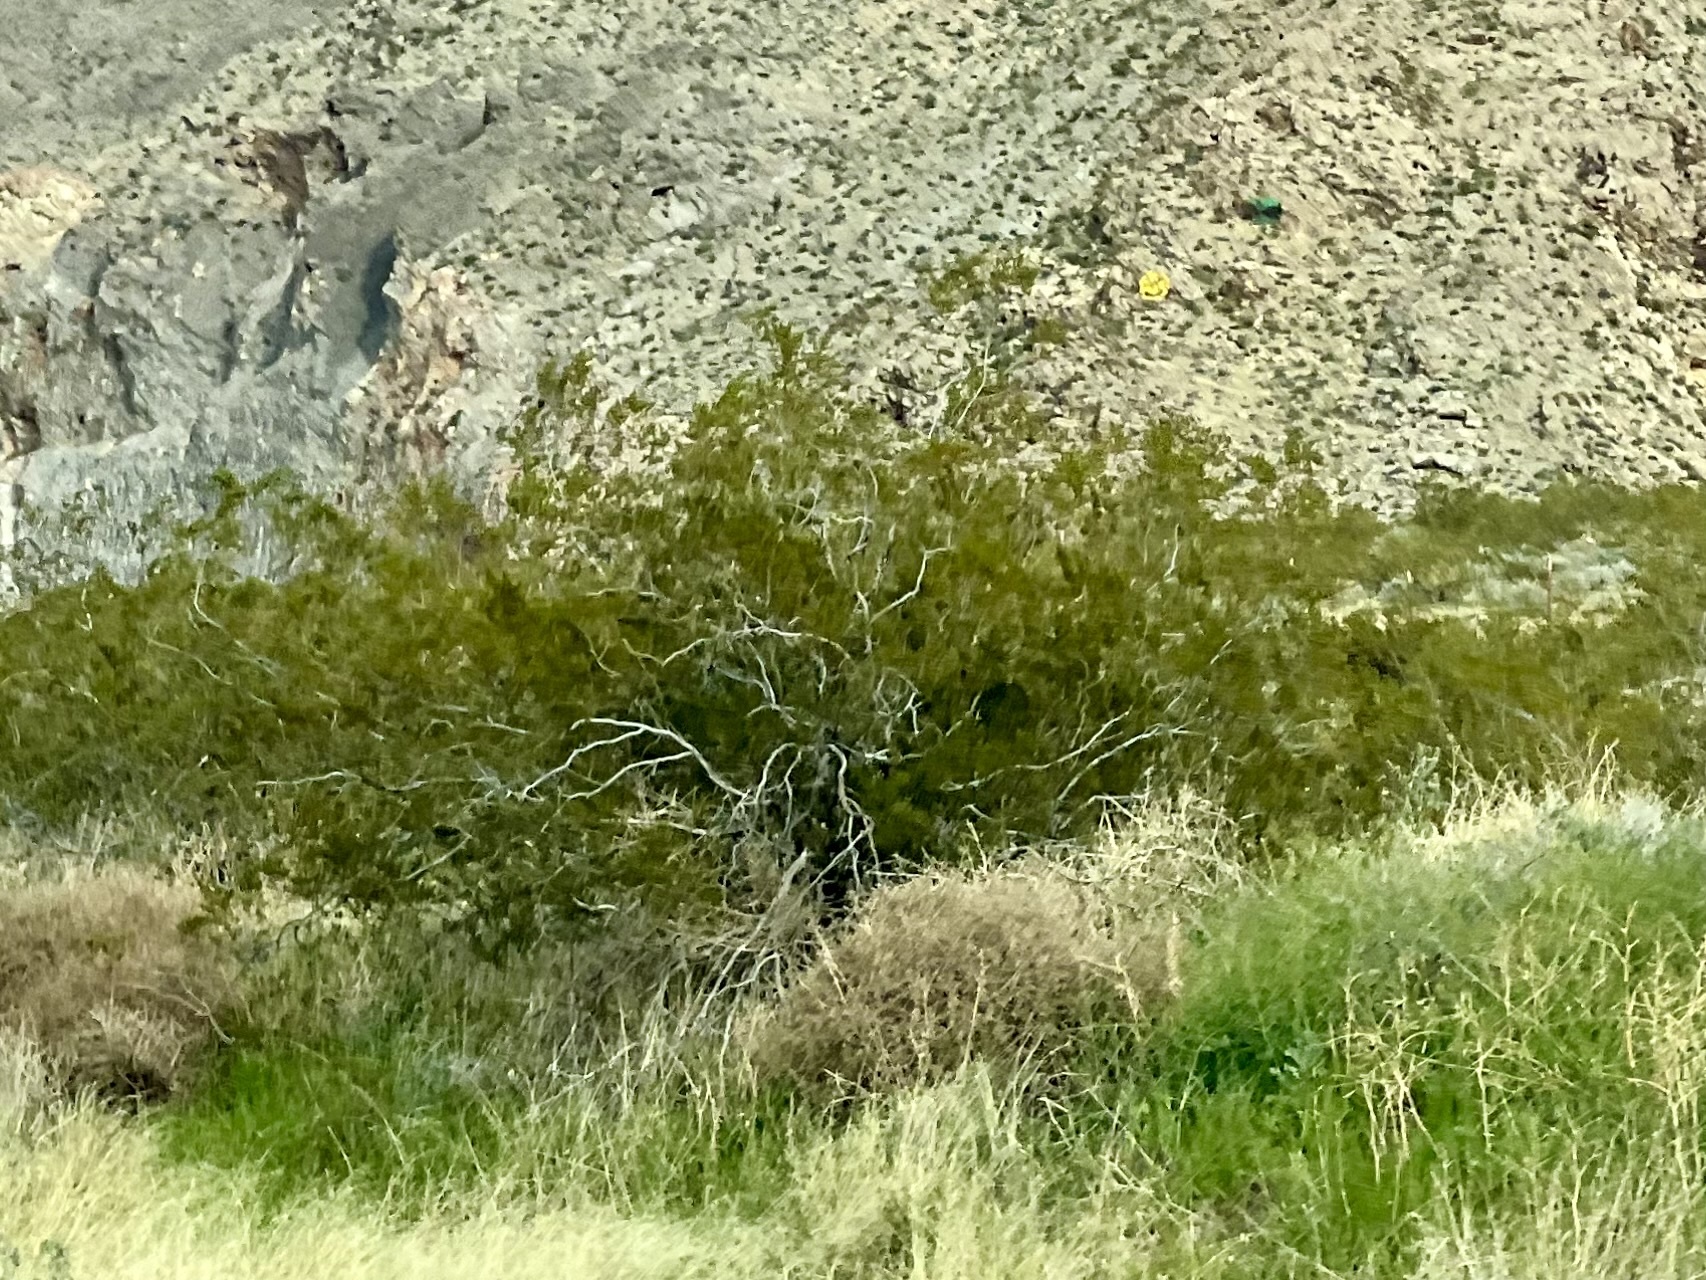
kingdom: Plantae
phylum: Tracheophyta
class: Magnoliopsida
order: Zygophyllales
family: Zygophyllaceae
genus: Larrea
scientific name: Larrea tridentata
